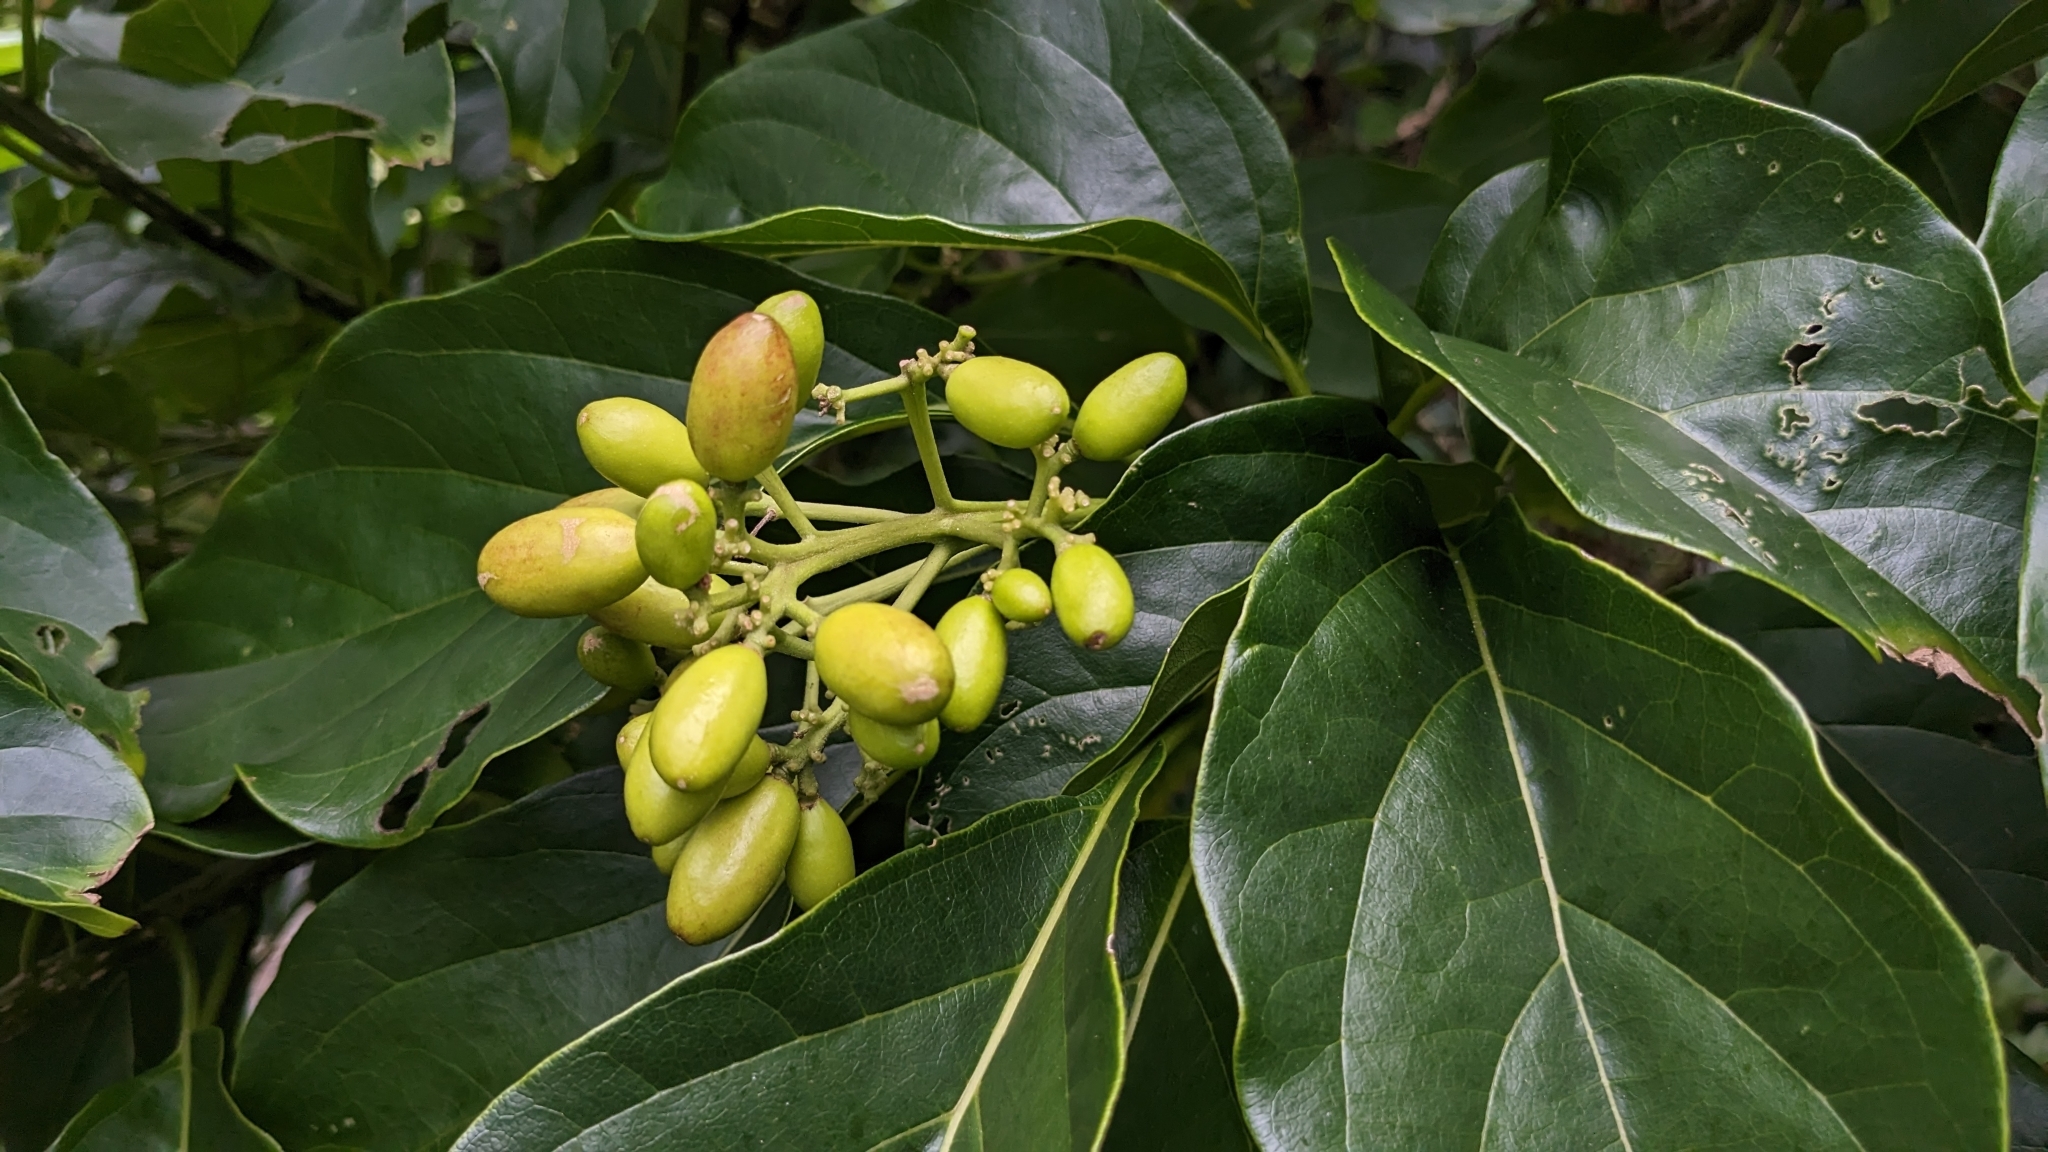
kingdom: Plantae
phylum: Tracheophyta
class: Magnoliopsida
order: Icacinales
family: Icacinaceae
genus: Nothapodytes
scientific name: Nothapodytes nimmoniana
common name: Nothapodytes
